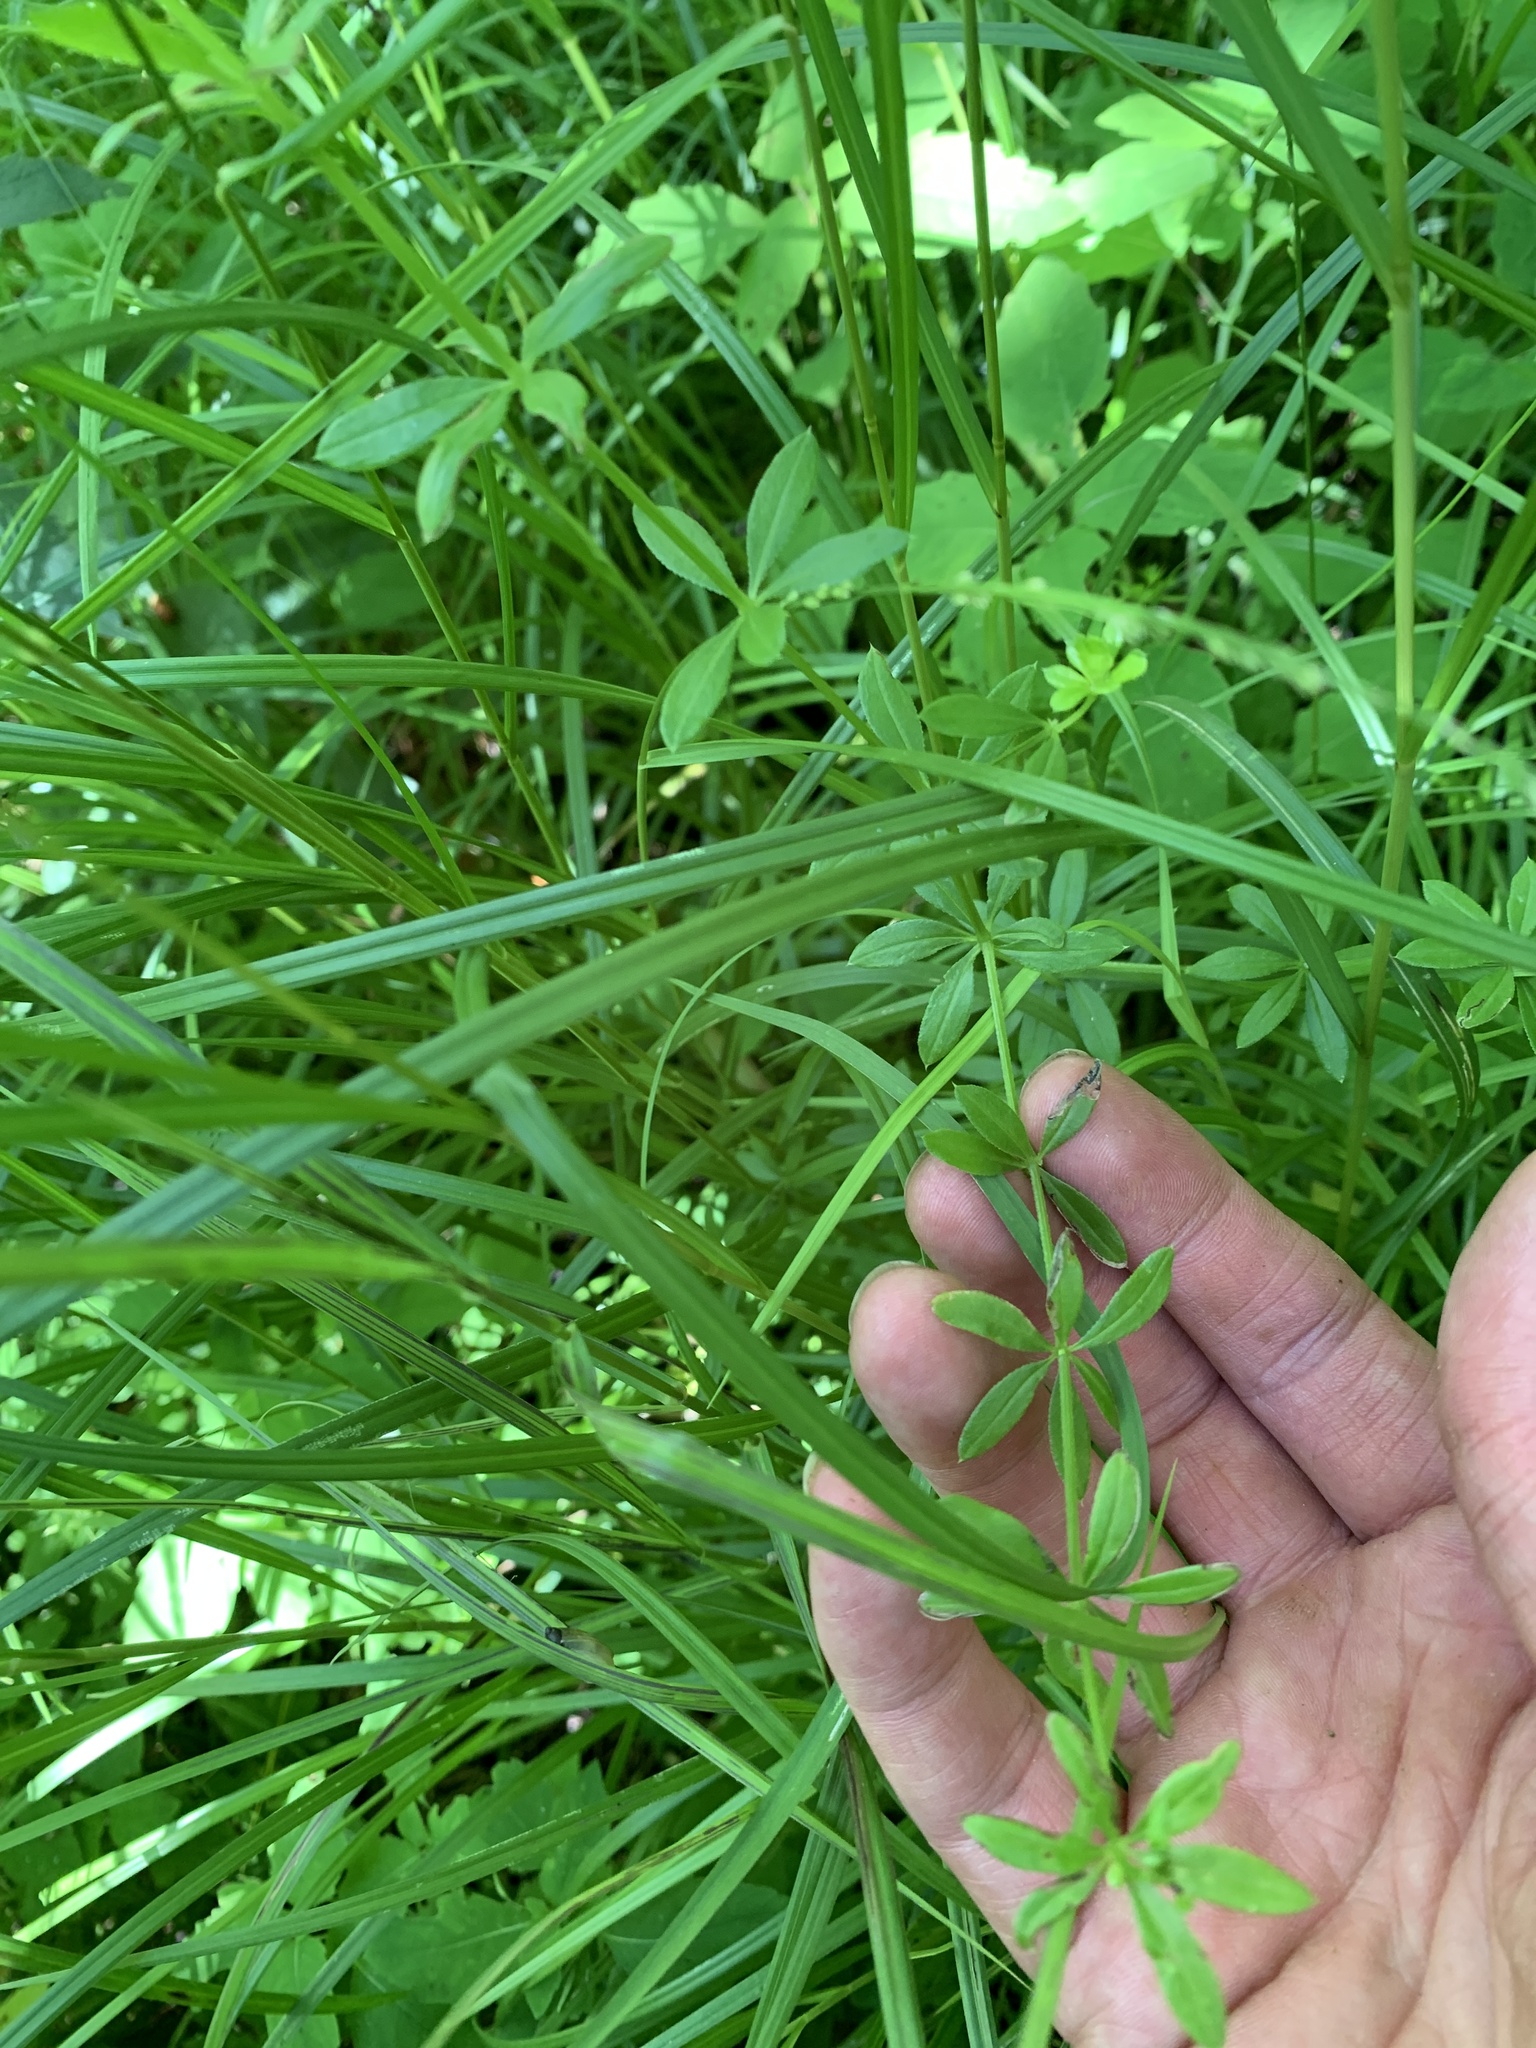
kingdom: Plantae
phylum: Tracheophyta
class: Magnoliopsida
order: Gentianales
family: Rubiaceae
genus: Galium
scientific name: Galium asprellum
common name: Rough bedstraw
